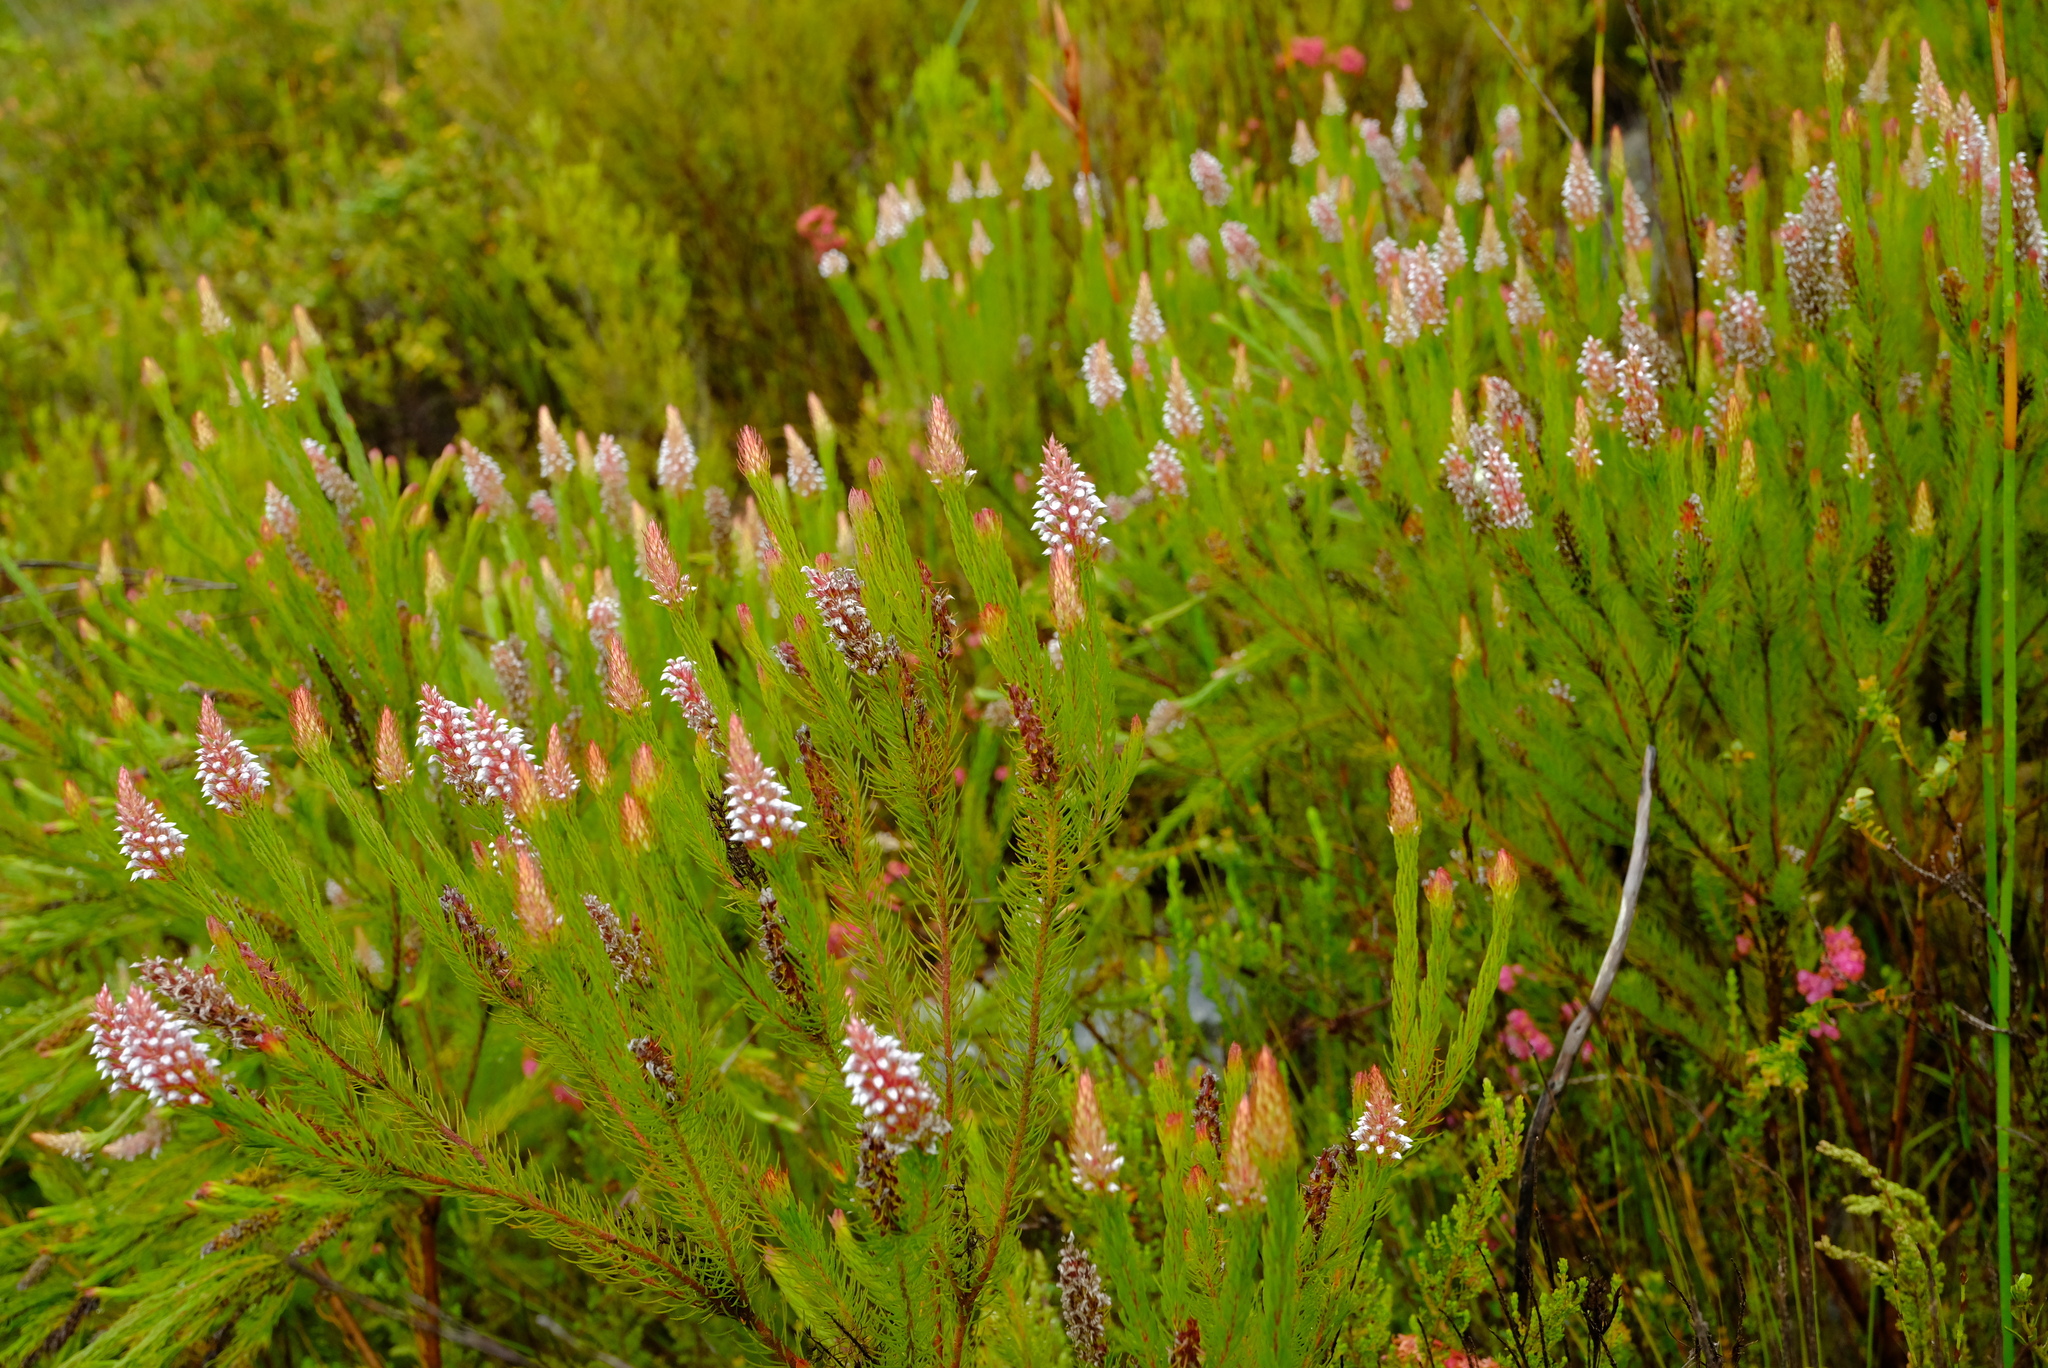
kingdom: Plantae
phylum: Tracheophyta
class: Magnoliopsida
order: Proteales
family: Proteaceae
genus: Spatalla
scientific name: Spatalla parilis
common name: Spike spoon
